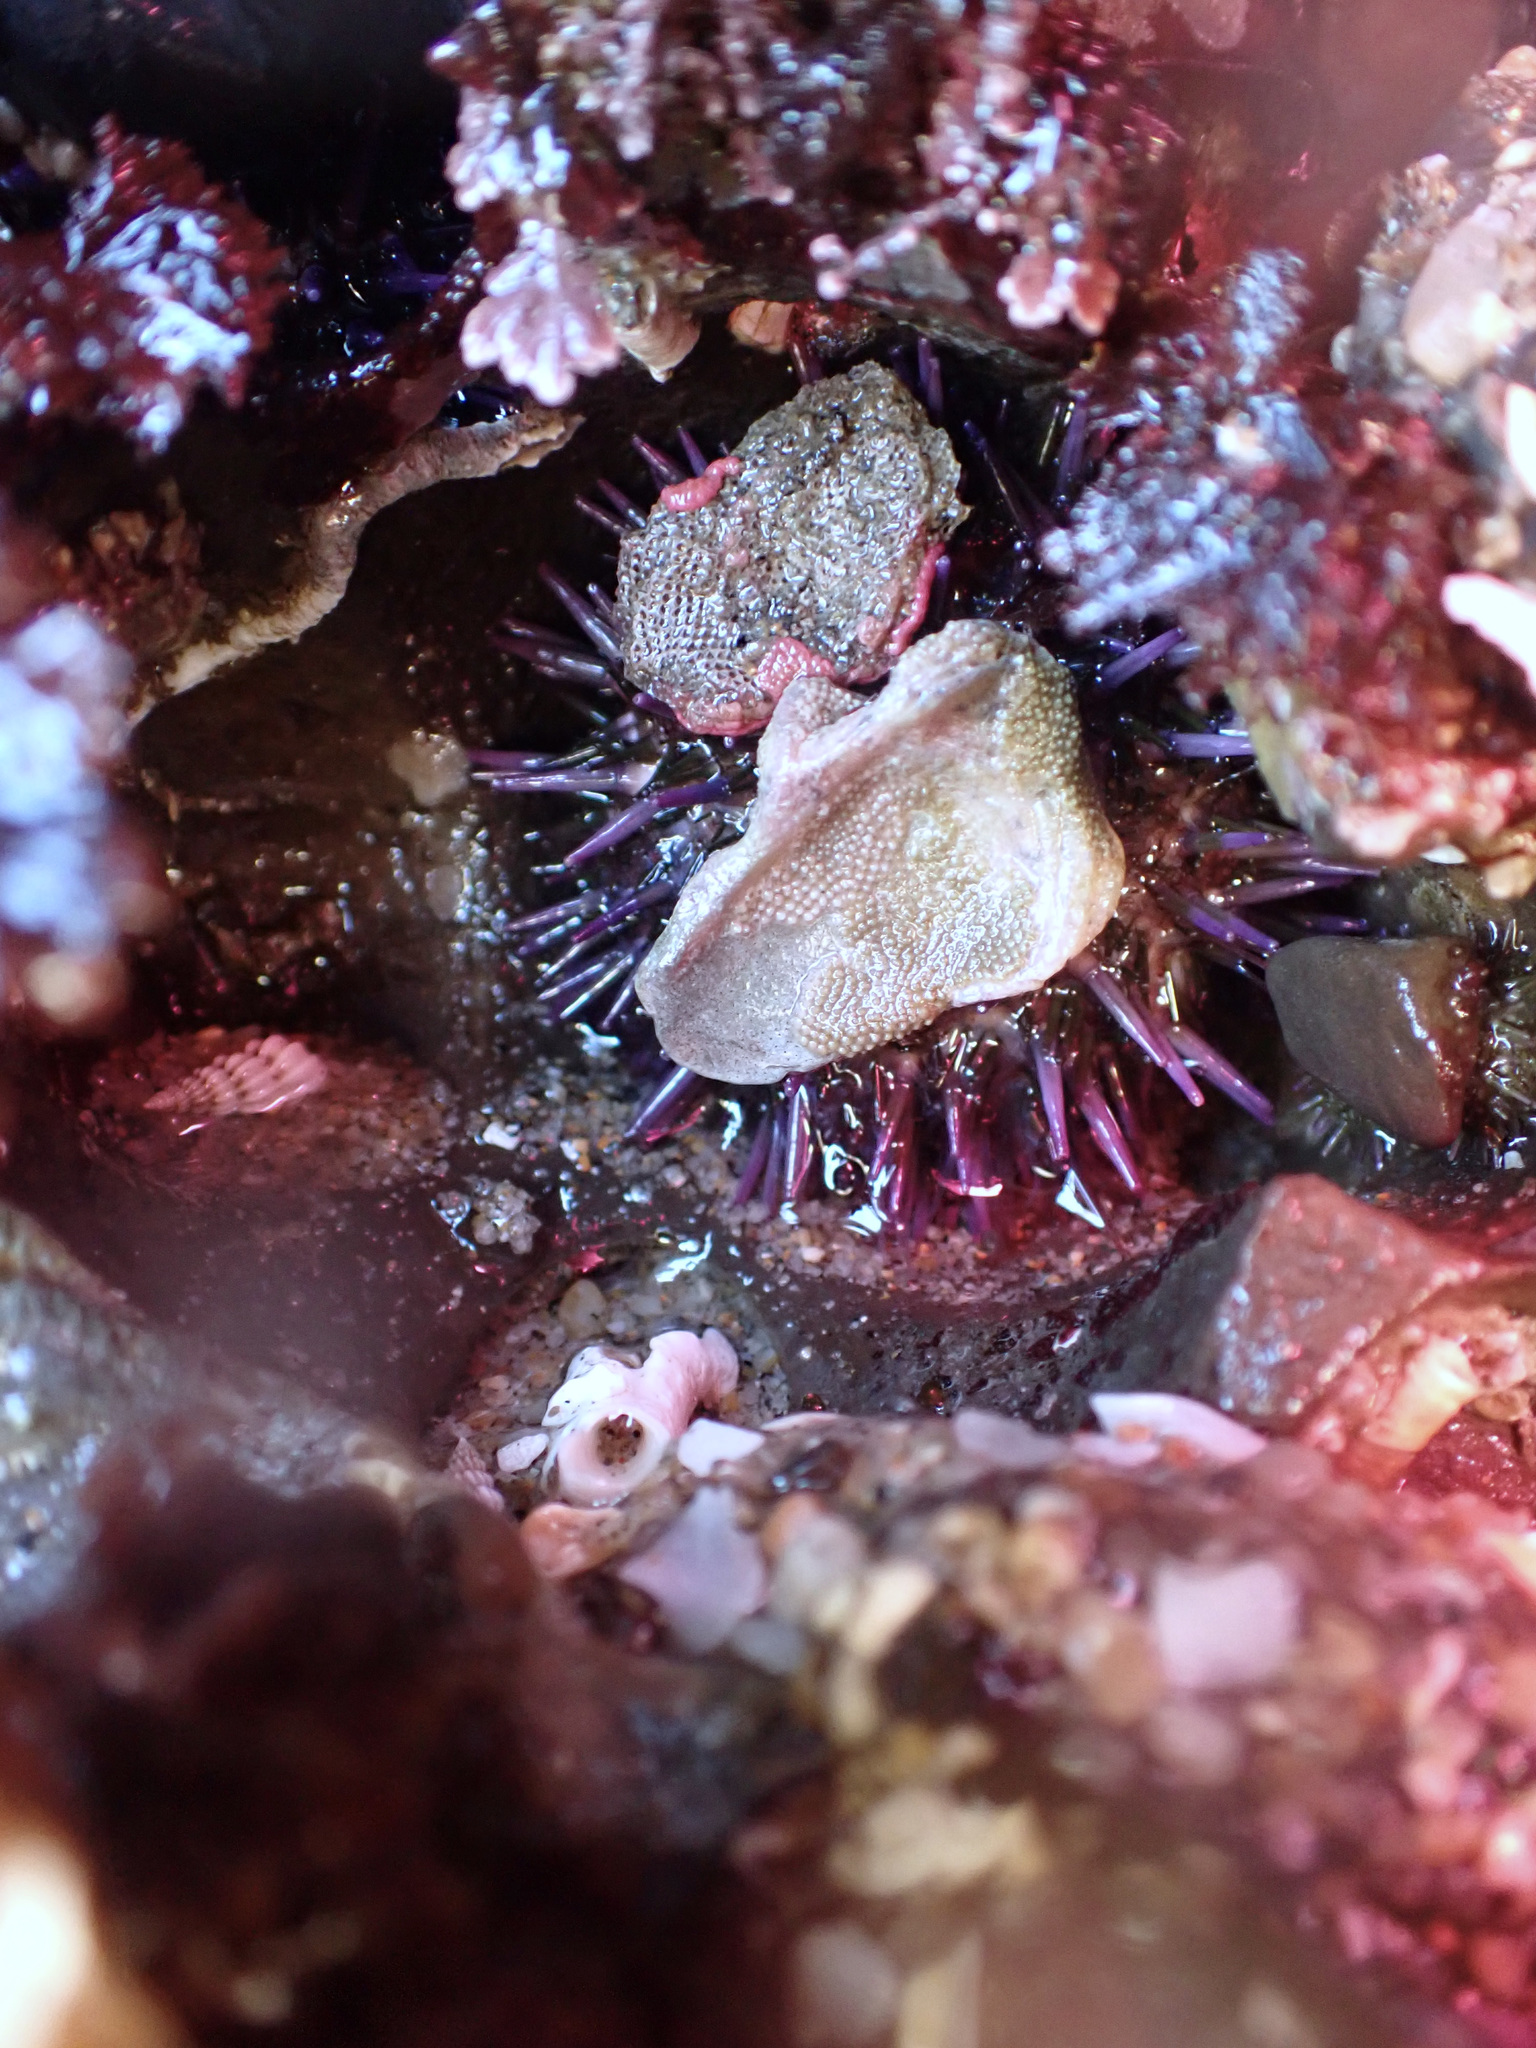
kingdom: Animalia
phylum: Echinodermata
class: Echinoidea
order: Camarodonta
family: Strongylocentrotidae
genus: Strongylocentrotus
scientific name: Strongylocentrotus purpuratus
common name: Purple sea urchin
